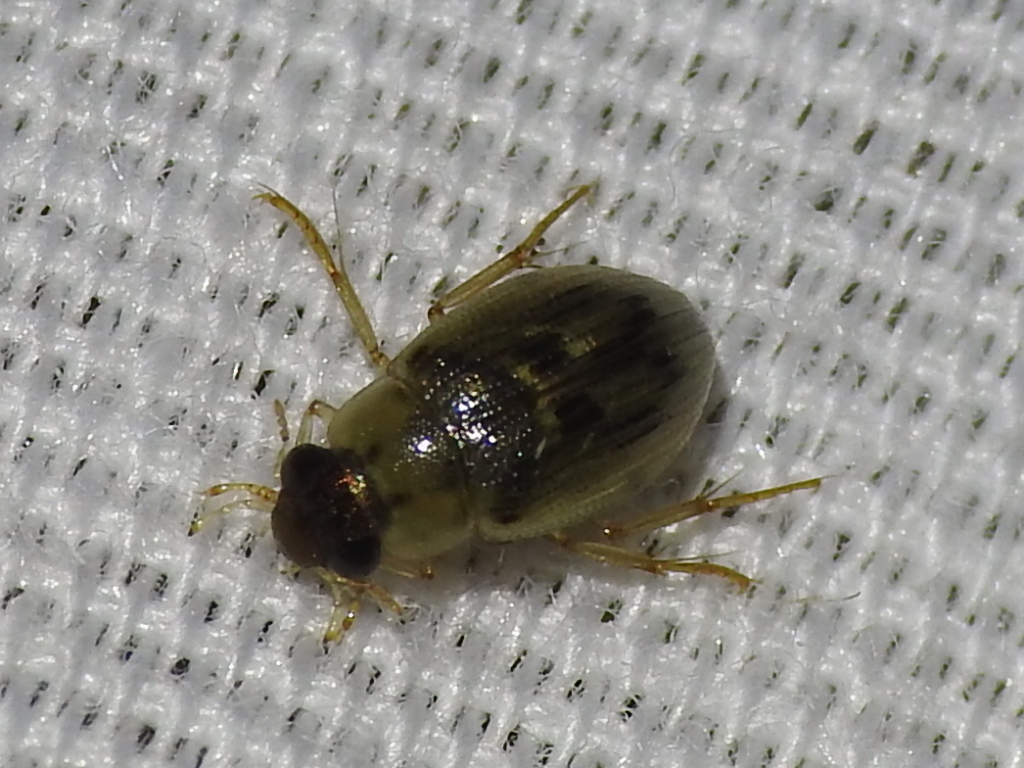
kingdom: Animalia
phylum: Arthropoda
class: Insecta
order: Coleoptera
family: Hydrophilidae
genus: Berosus
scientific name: Berosus
